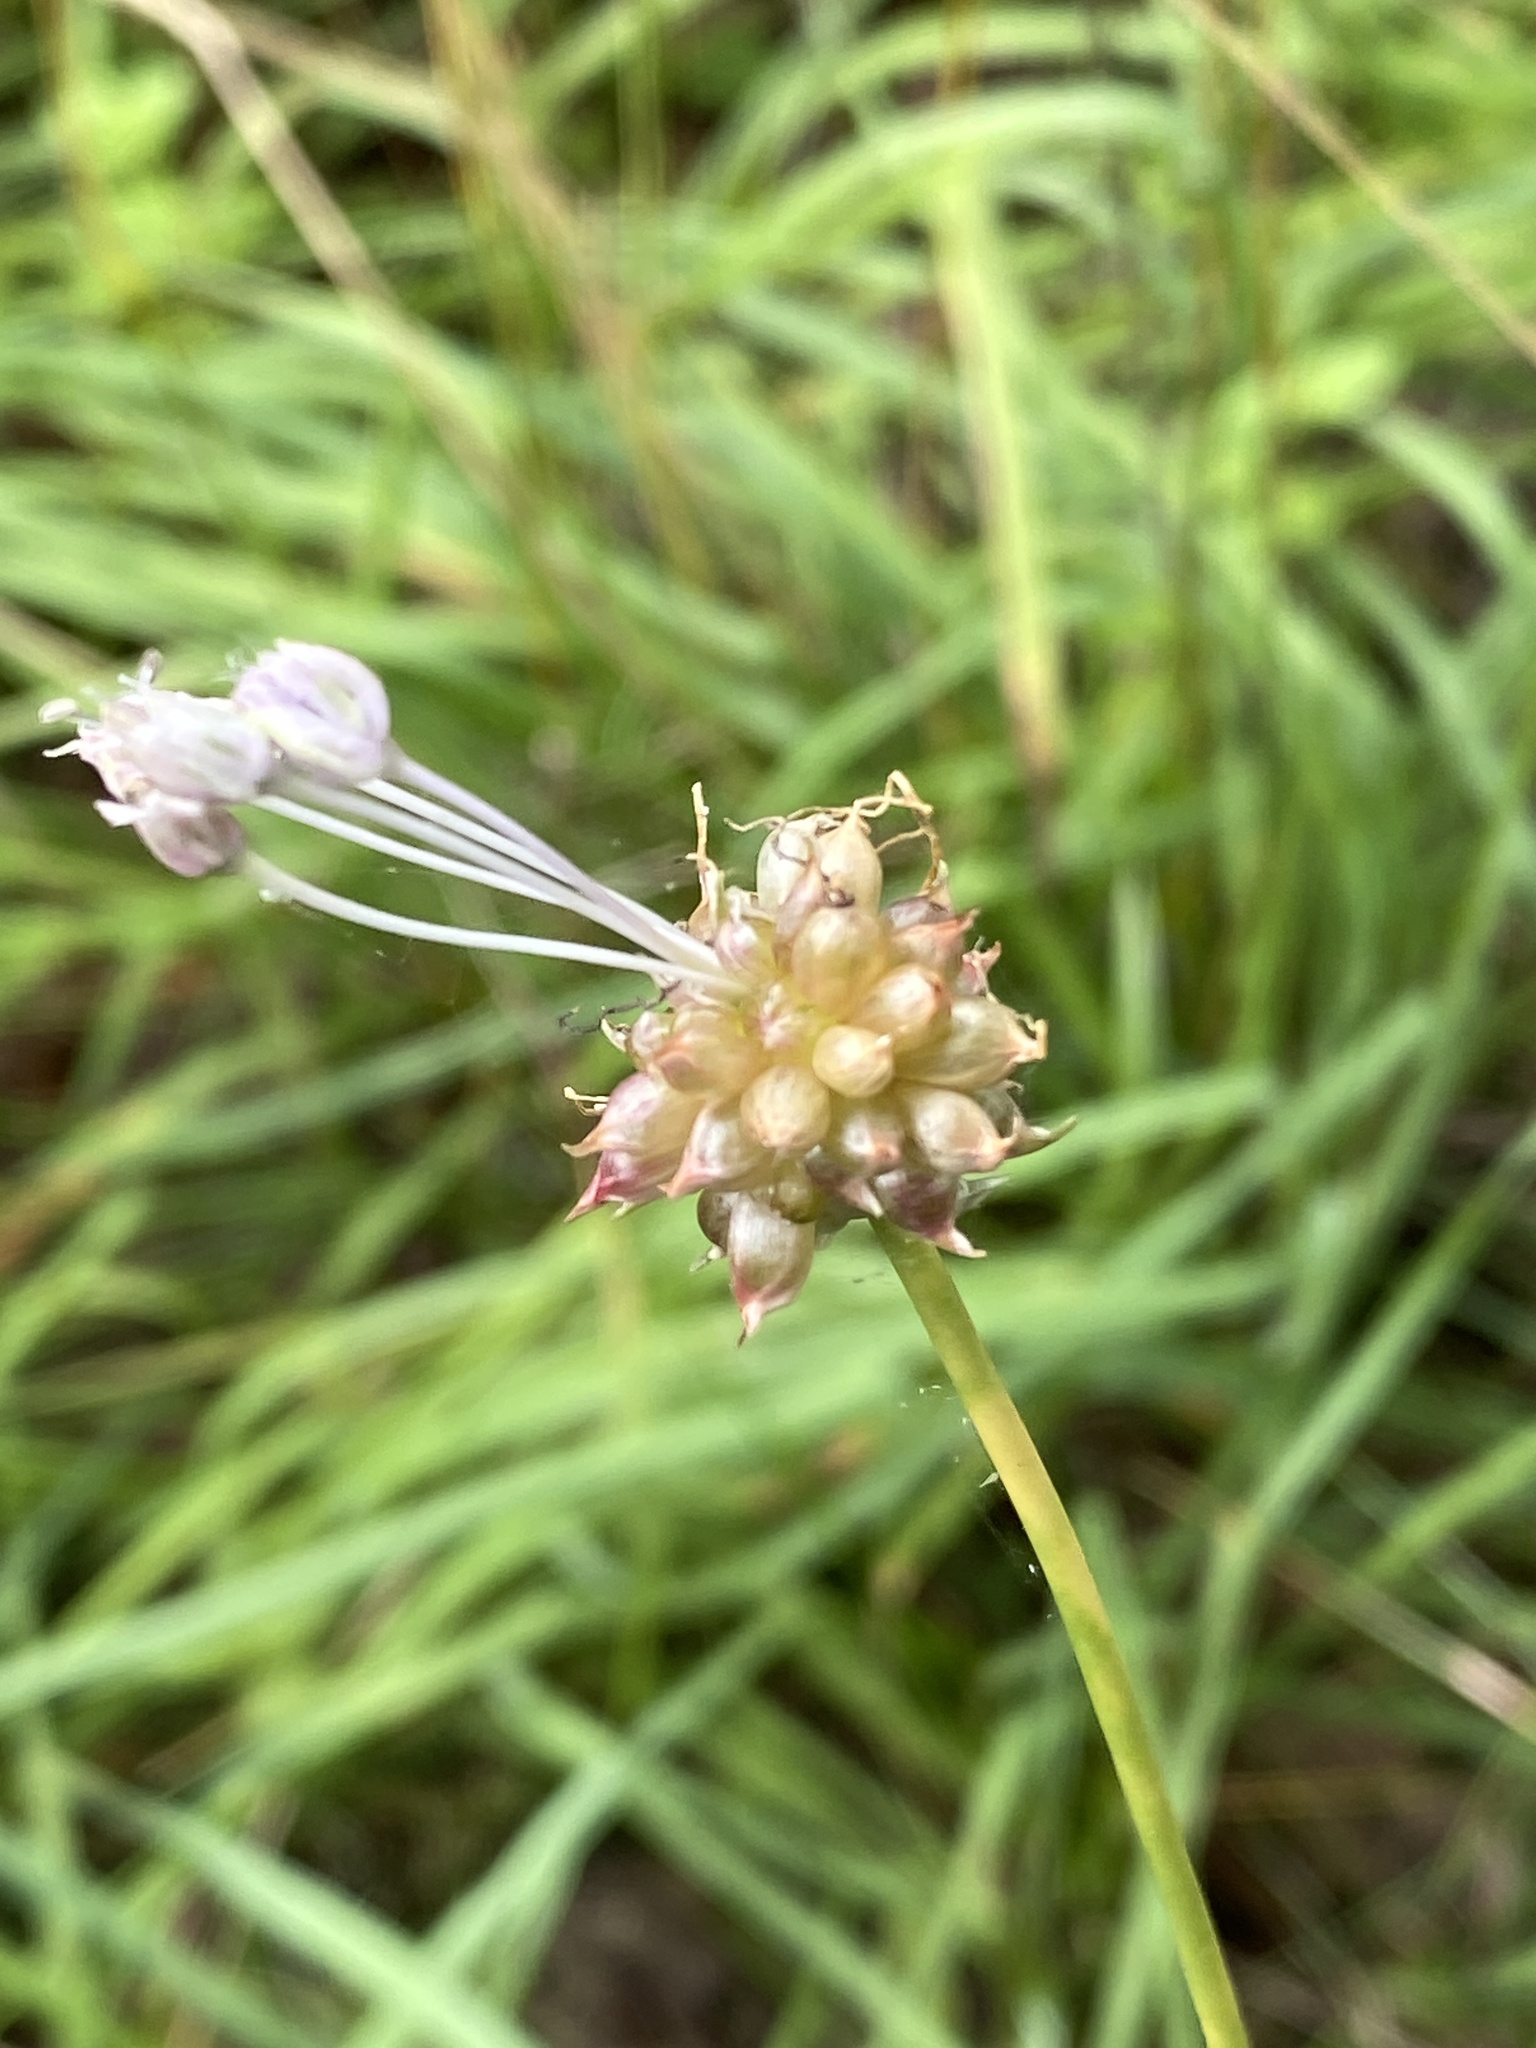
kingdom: Plantae
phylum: Tracheophyta
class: Liliopsida
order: Asparagales
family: Amaryllidaceae
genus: Allium
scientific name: Allium vineale
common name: Crow garlic
